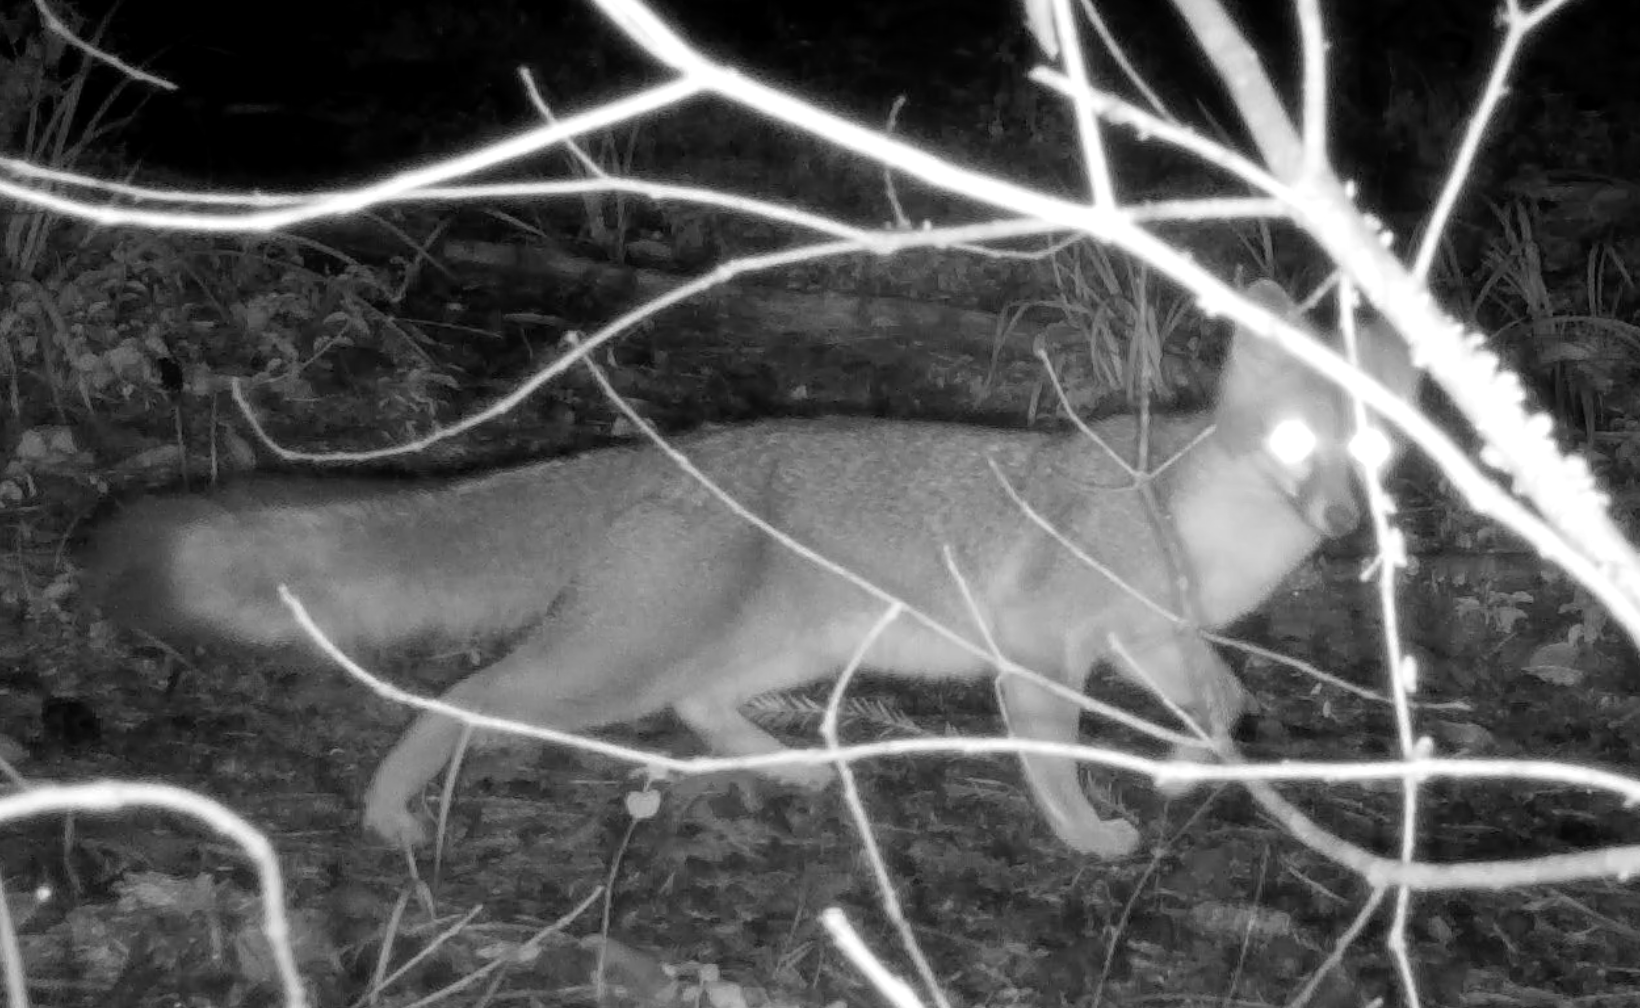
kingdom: Animalia
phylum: Chordata
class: Mammalia
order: Carnivora
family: Canidae
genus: Urocyon
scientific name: Urocyon cinereoargenteus
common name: Gray fox
